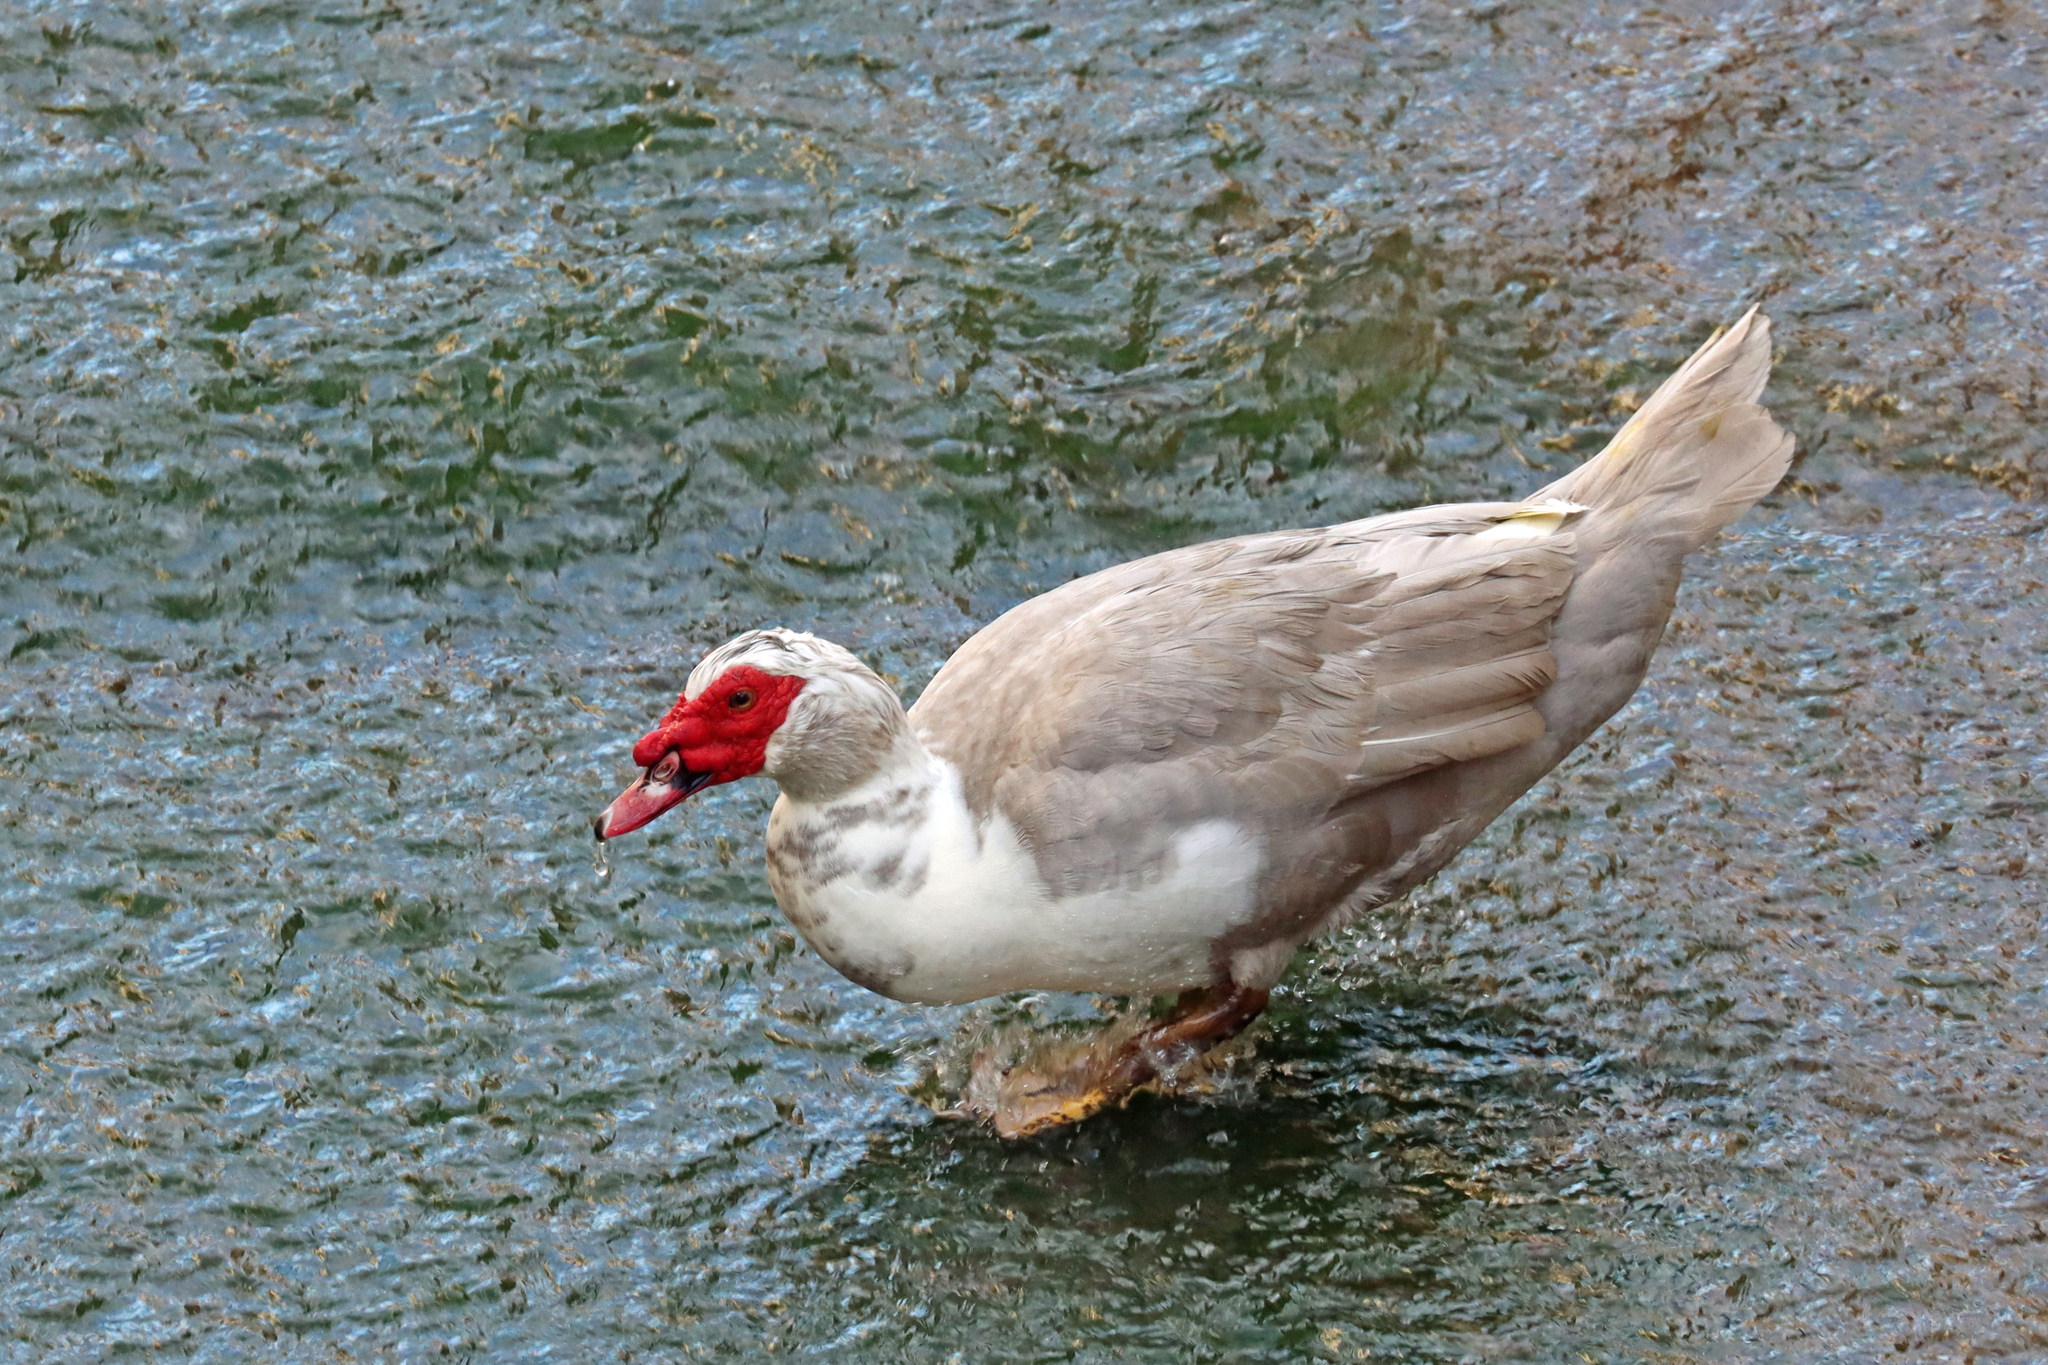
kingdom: Animalia
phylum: Chordata
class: Aves
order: Anseriformes
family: Anatidae
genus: Cairina
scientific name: Cairina moschata
